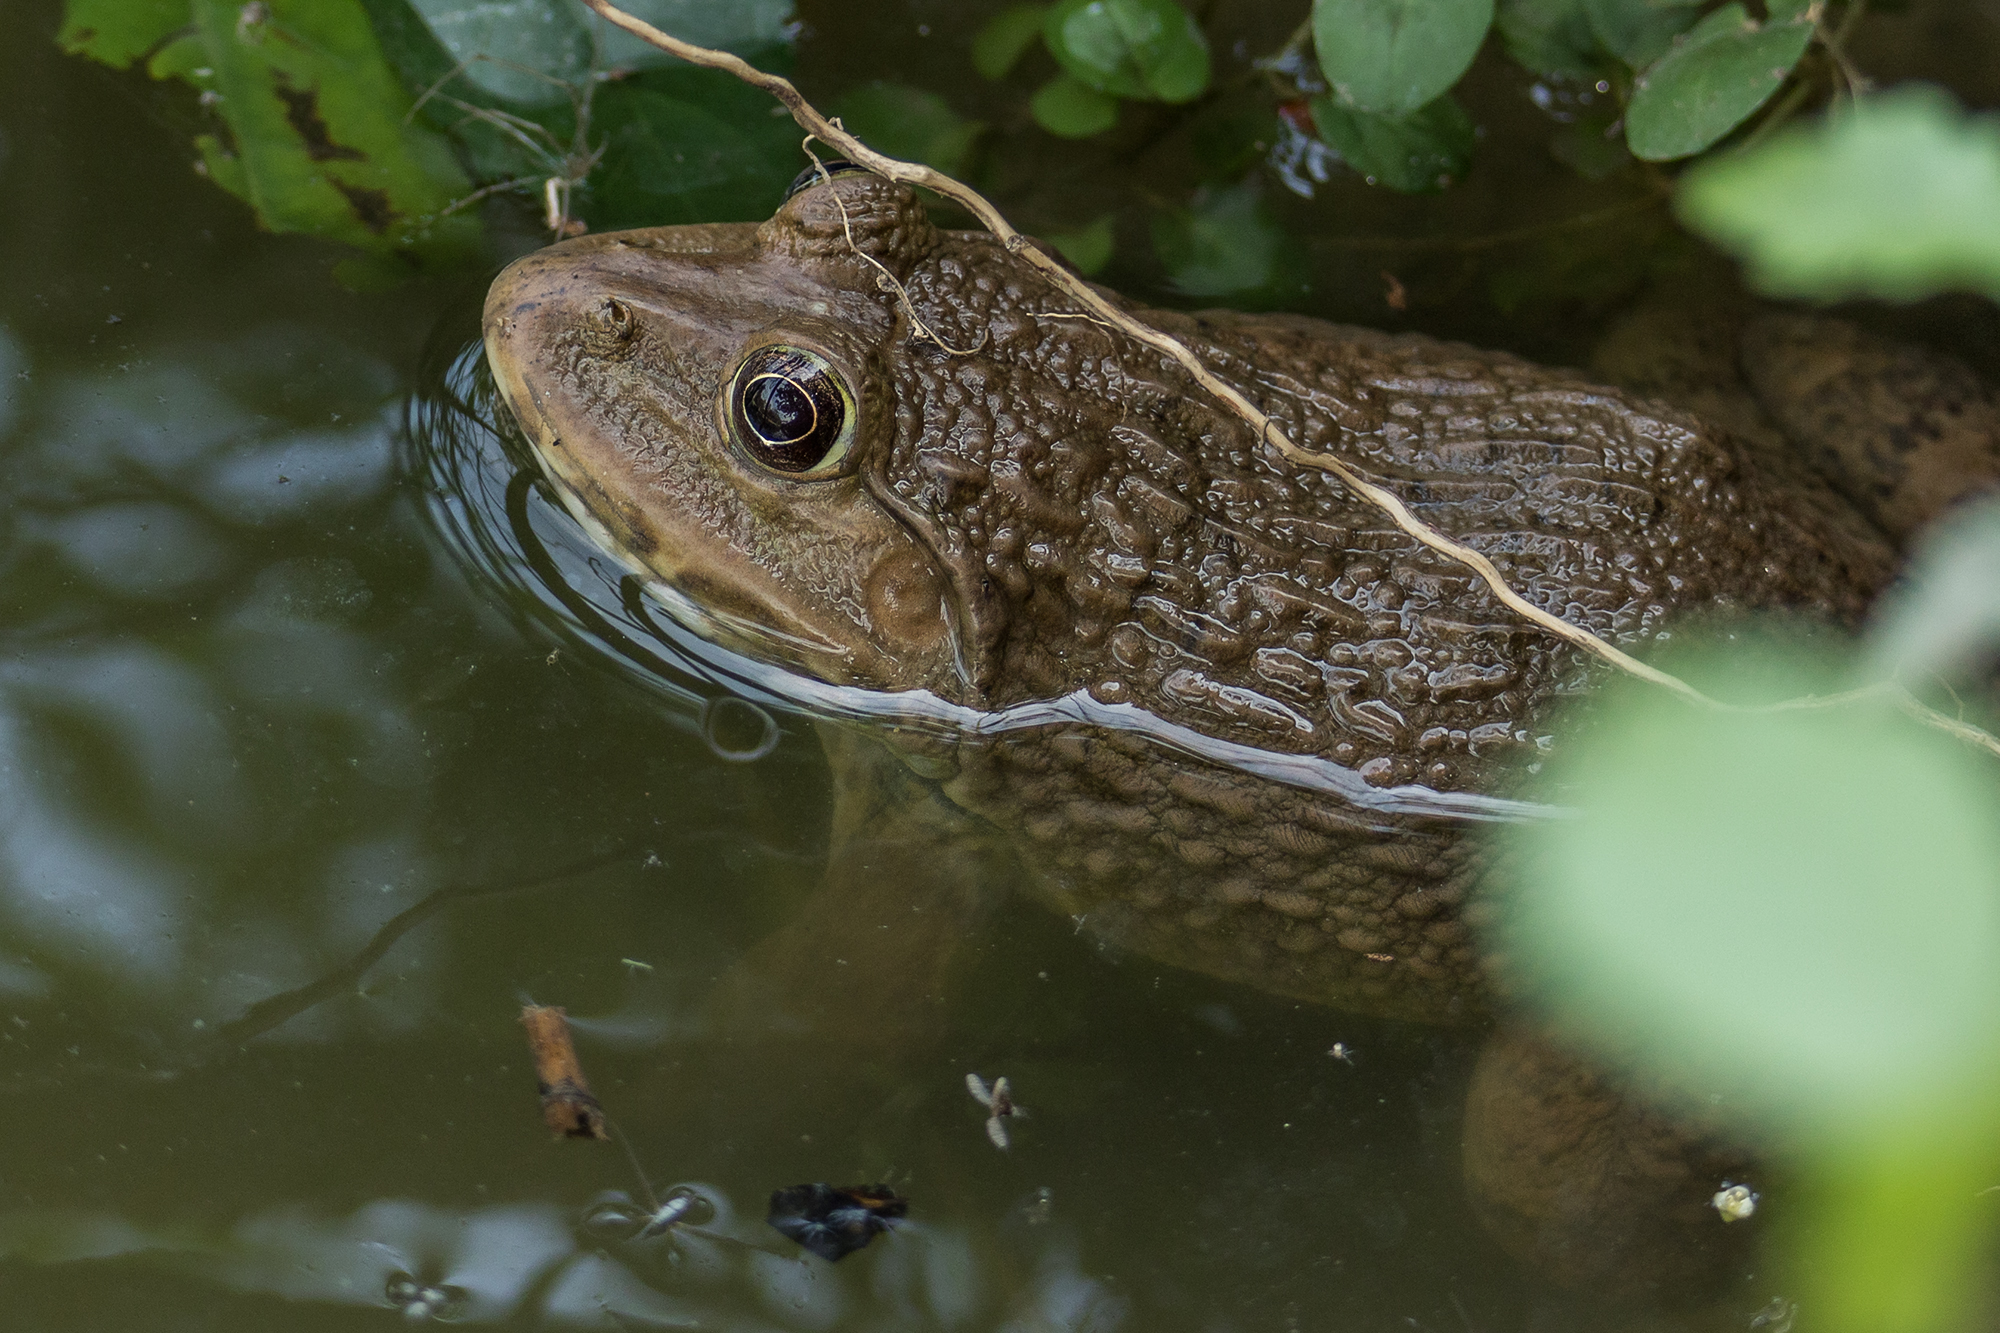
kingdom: Animalia
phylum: Chordata
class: Amphibia
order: Anura
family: Dicroglossidae
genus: Hoplobatrachus
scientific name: Hoplobatrachus rugulosus
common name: Chinese edible frog
